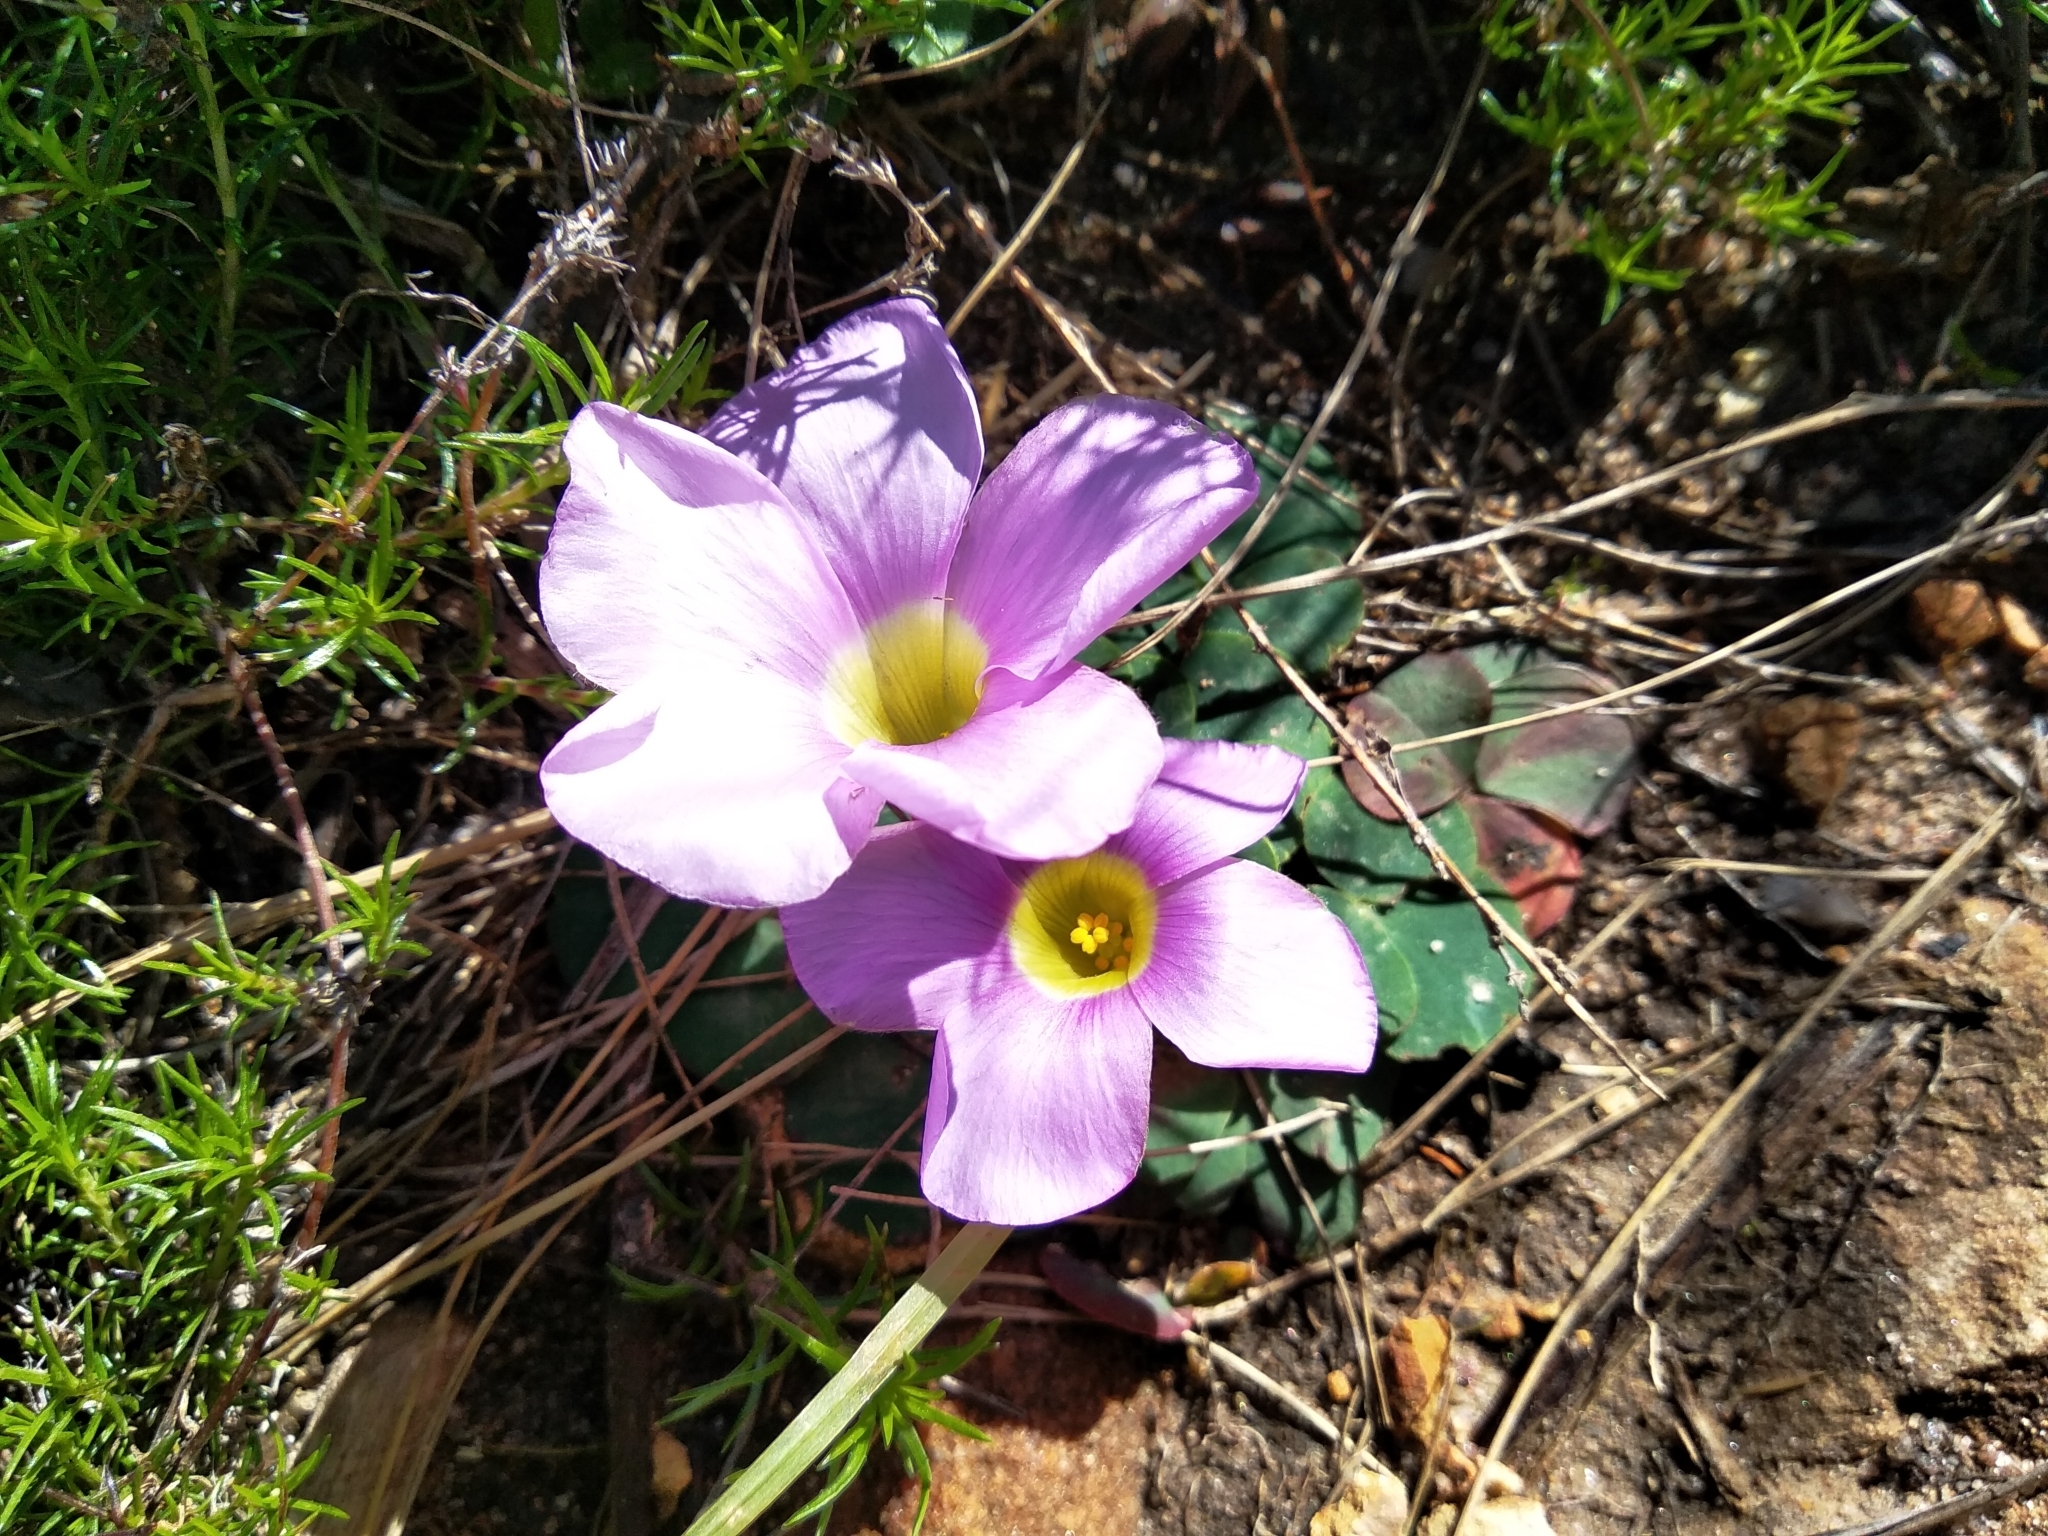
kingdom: Plantae
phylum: Tracheophyta
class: Magnoliopsida
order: Oxalidales
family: Oxalidaceae
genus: Oxalis
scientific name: Oxalis purpurea
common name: Purple woodsorrel
